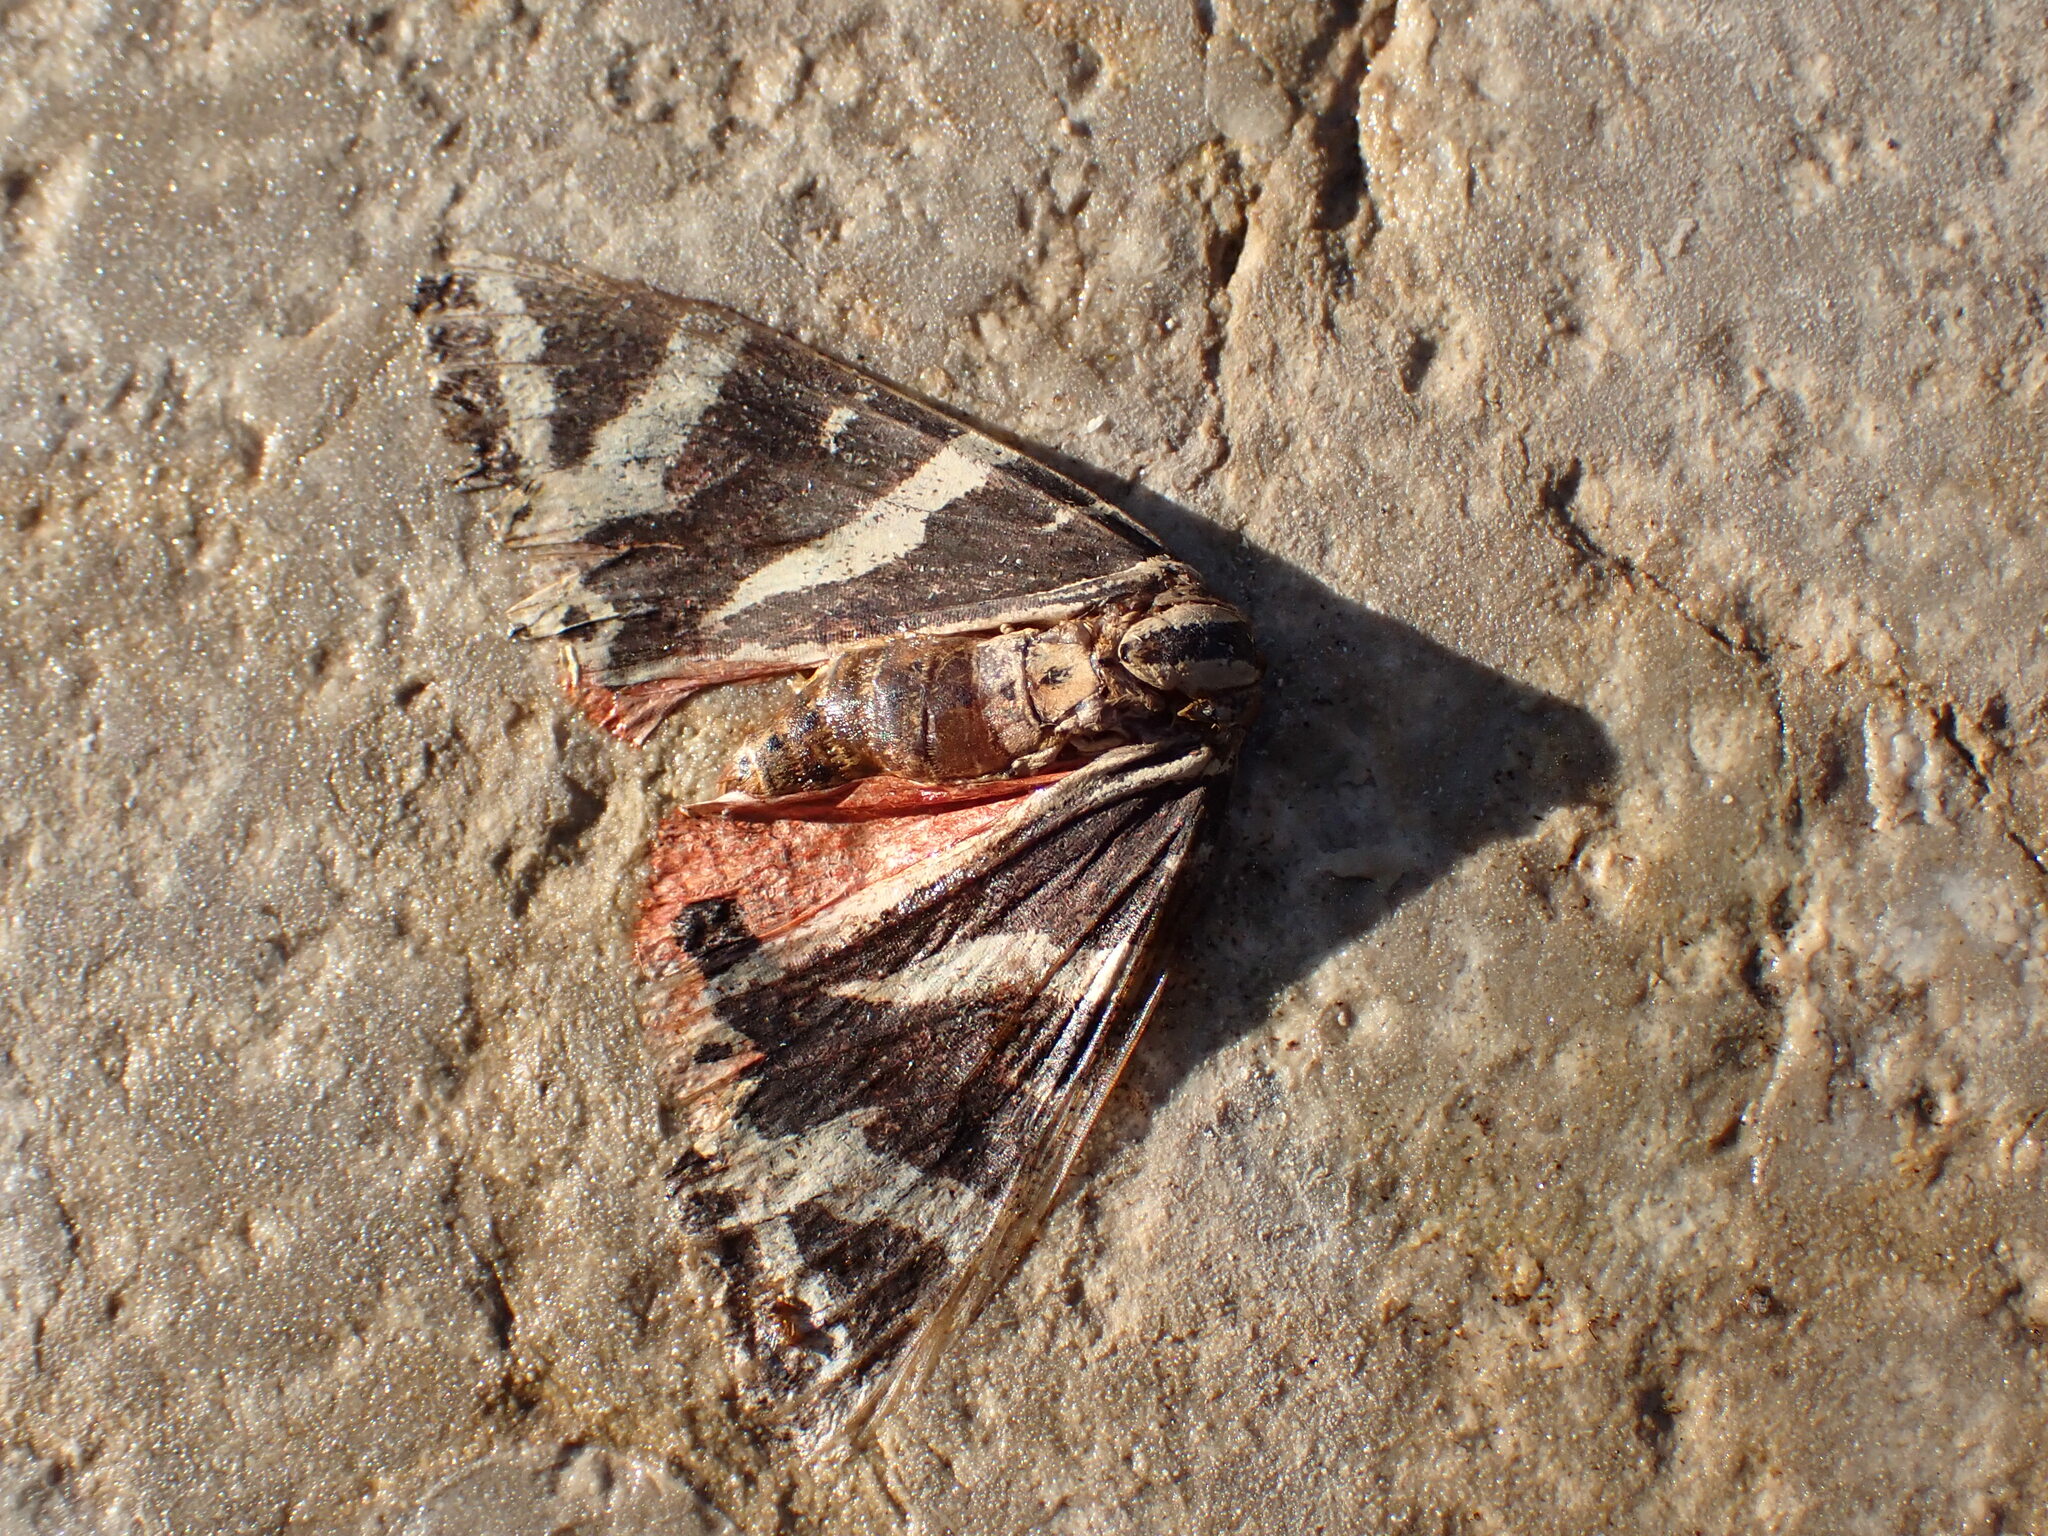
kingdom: Animalia
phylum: Arthropoda
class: Insecta
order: Lepidoptera
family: Erebidae
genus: Euplagia
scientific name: Euplagia quadripunctaria
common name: Jersey tiger
